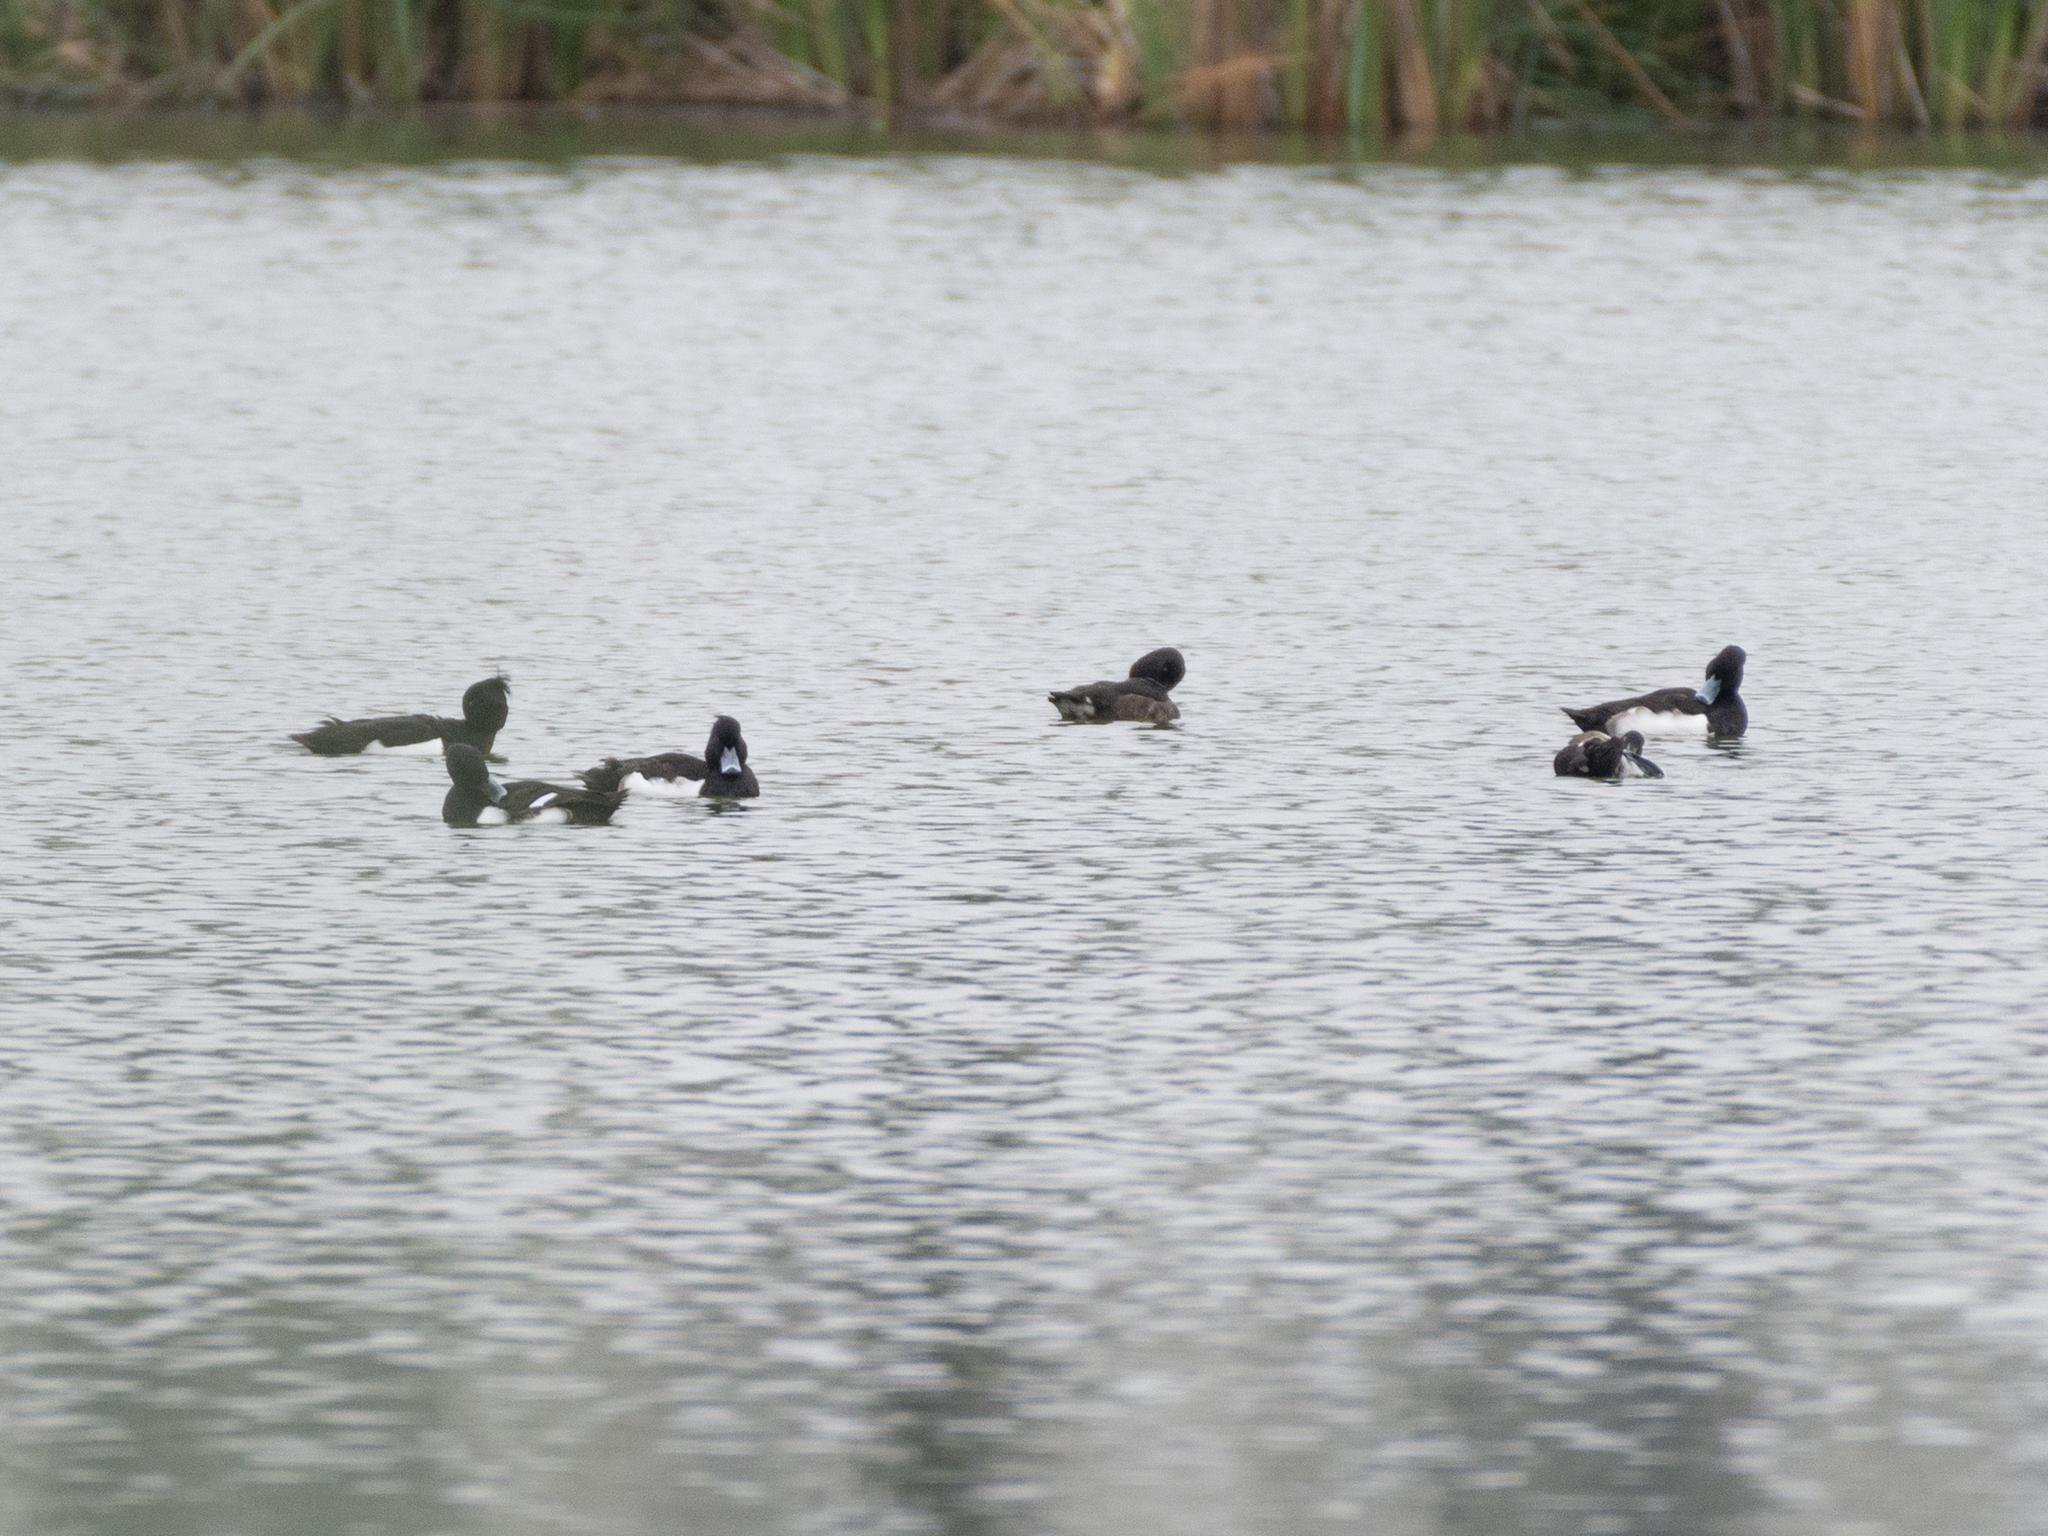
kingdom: Animalia
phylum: Chordata
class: Aves
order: Anseriformes
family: Anatidae
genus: Aythya
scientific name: Aythya fuligula
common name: Tufted duck
